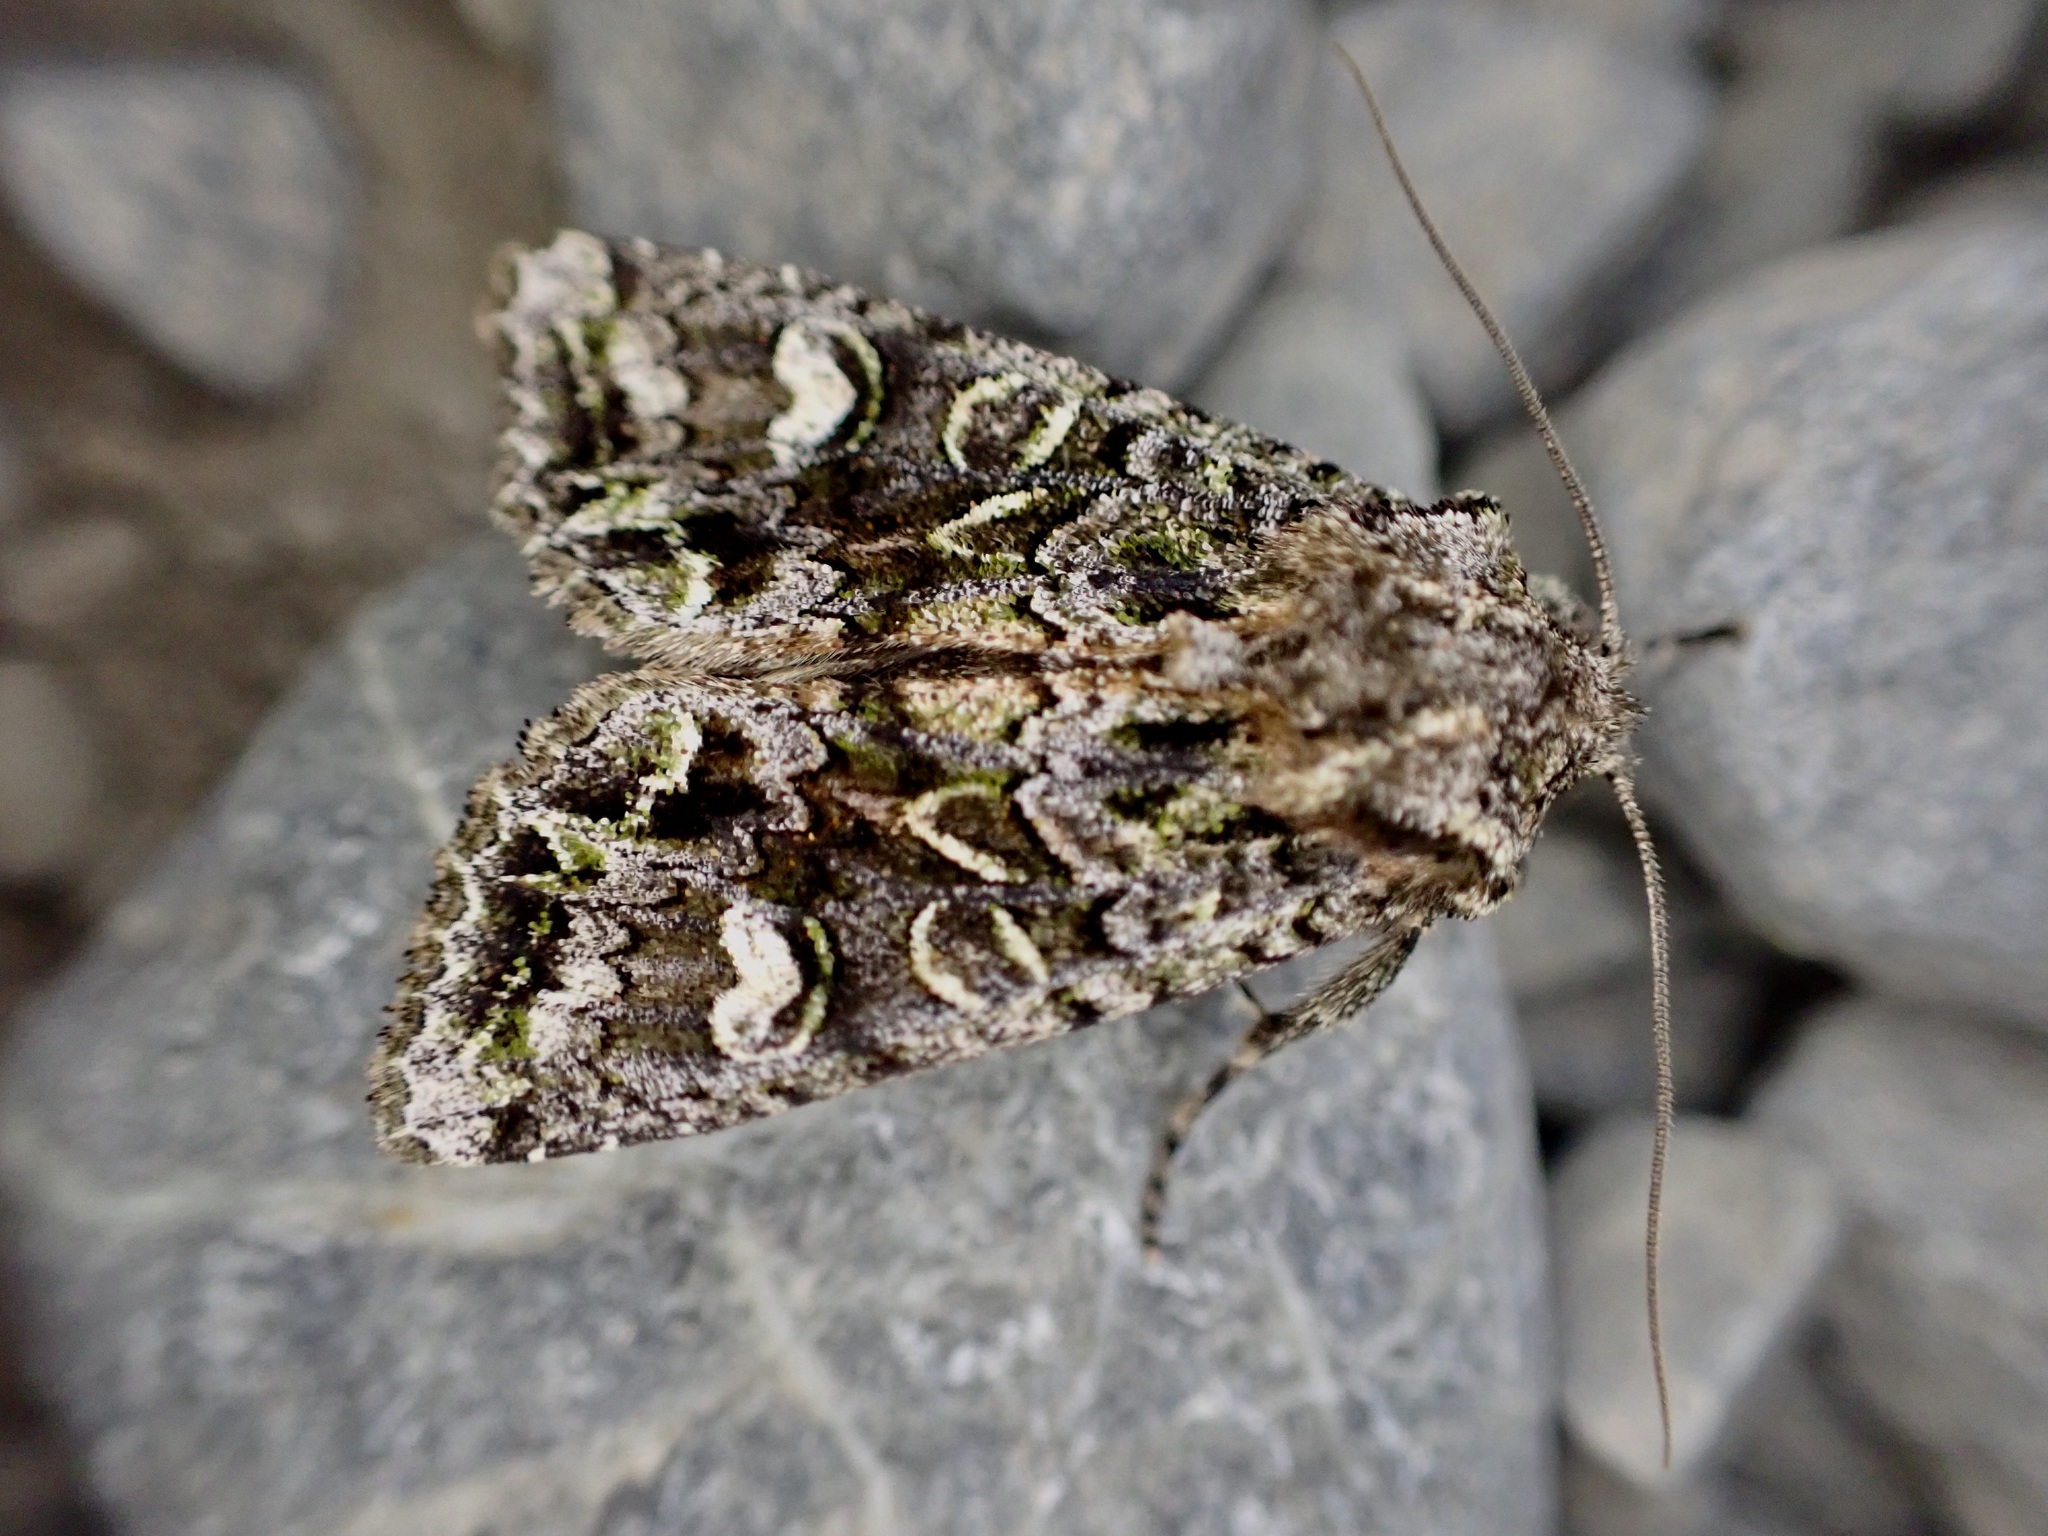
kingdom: Animalia
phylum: Arthropoda
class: Insecta
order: Lepidoptera
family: Noctuidae
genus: Ichneutica
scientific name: Ichneutica
